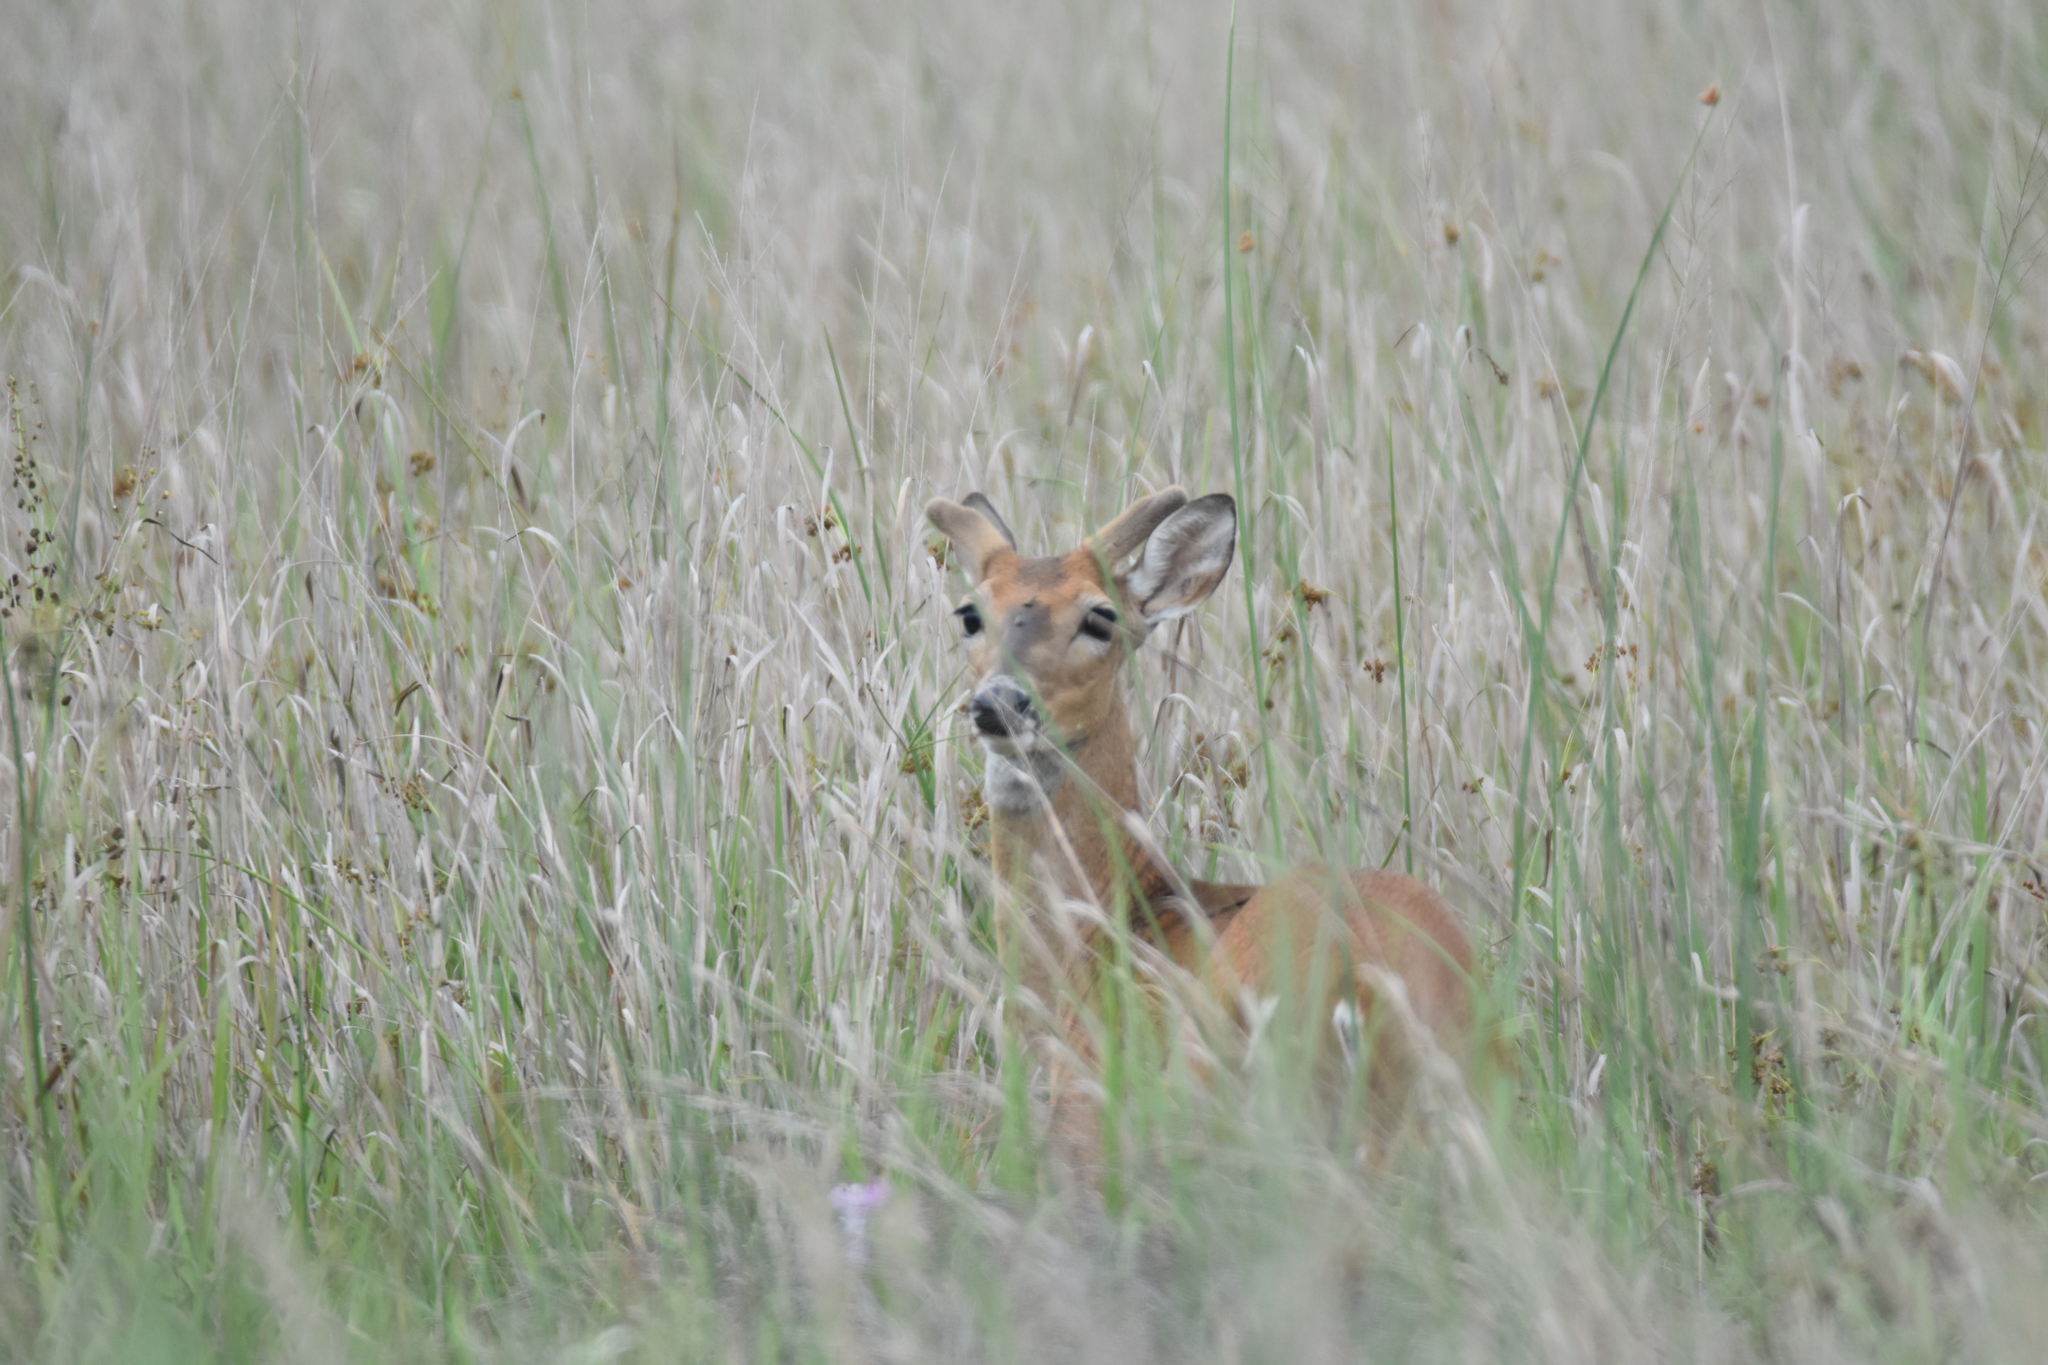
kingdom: Animalia
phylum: Chordata
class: Mammalia
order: Artiodactyla
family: Cervidae
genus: Odocoileus
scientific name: Odocoileus virginianus
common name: White-tailed deer
